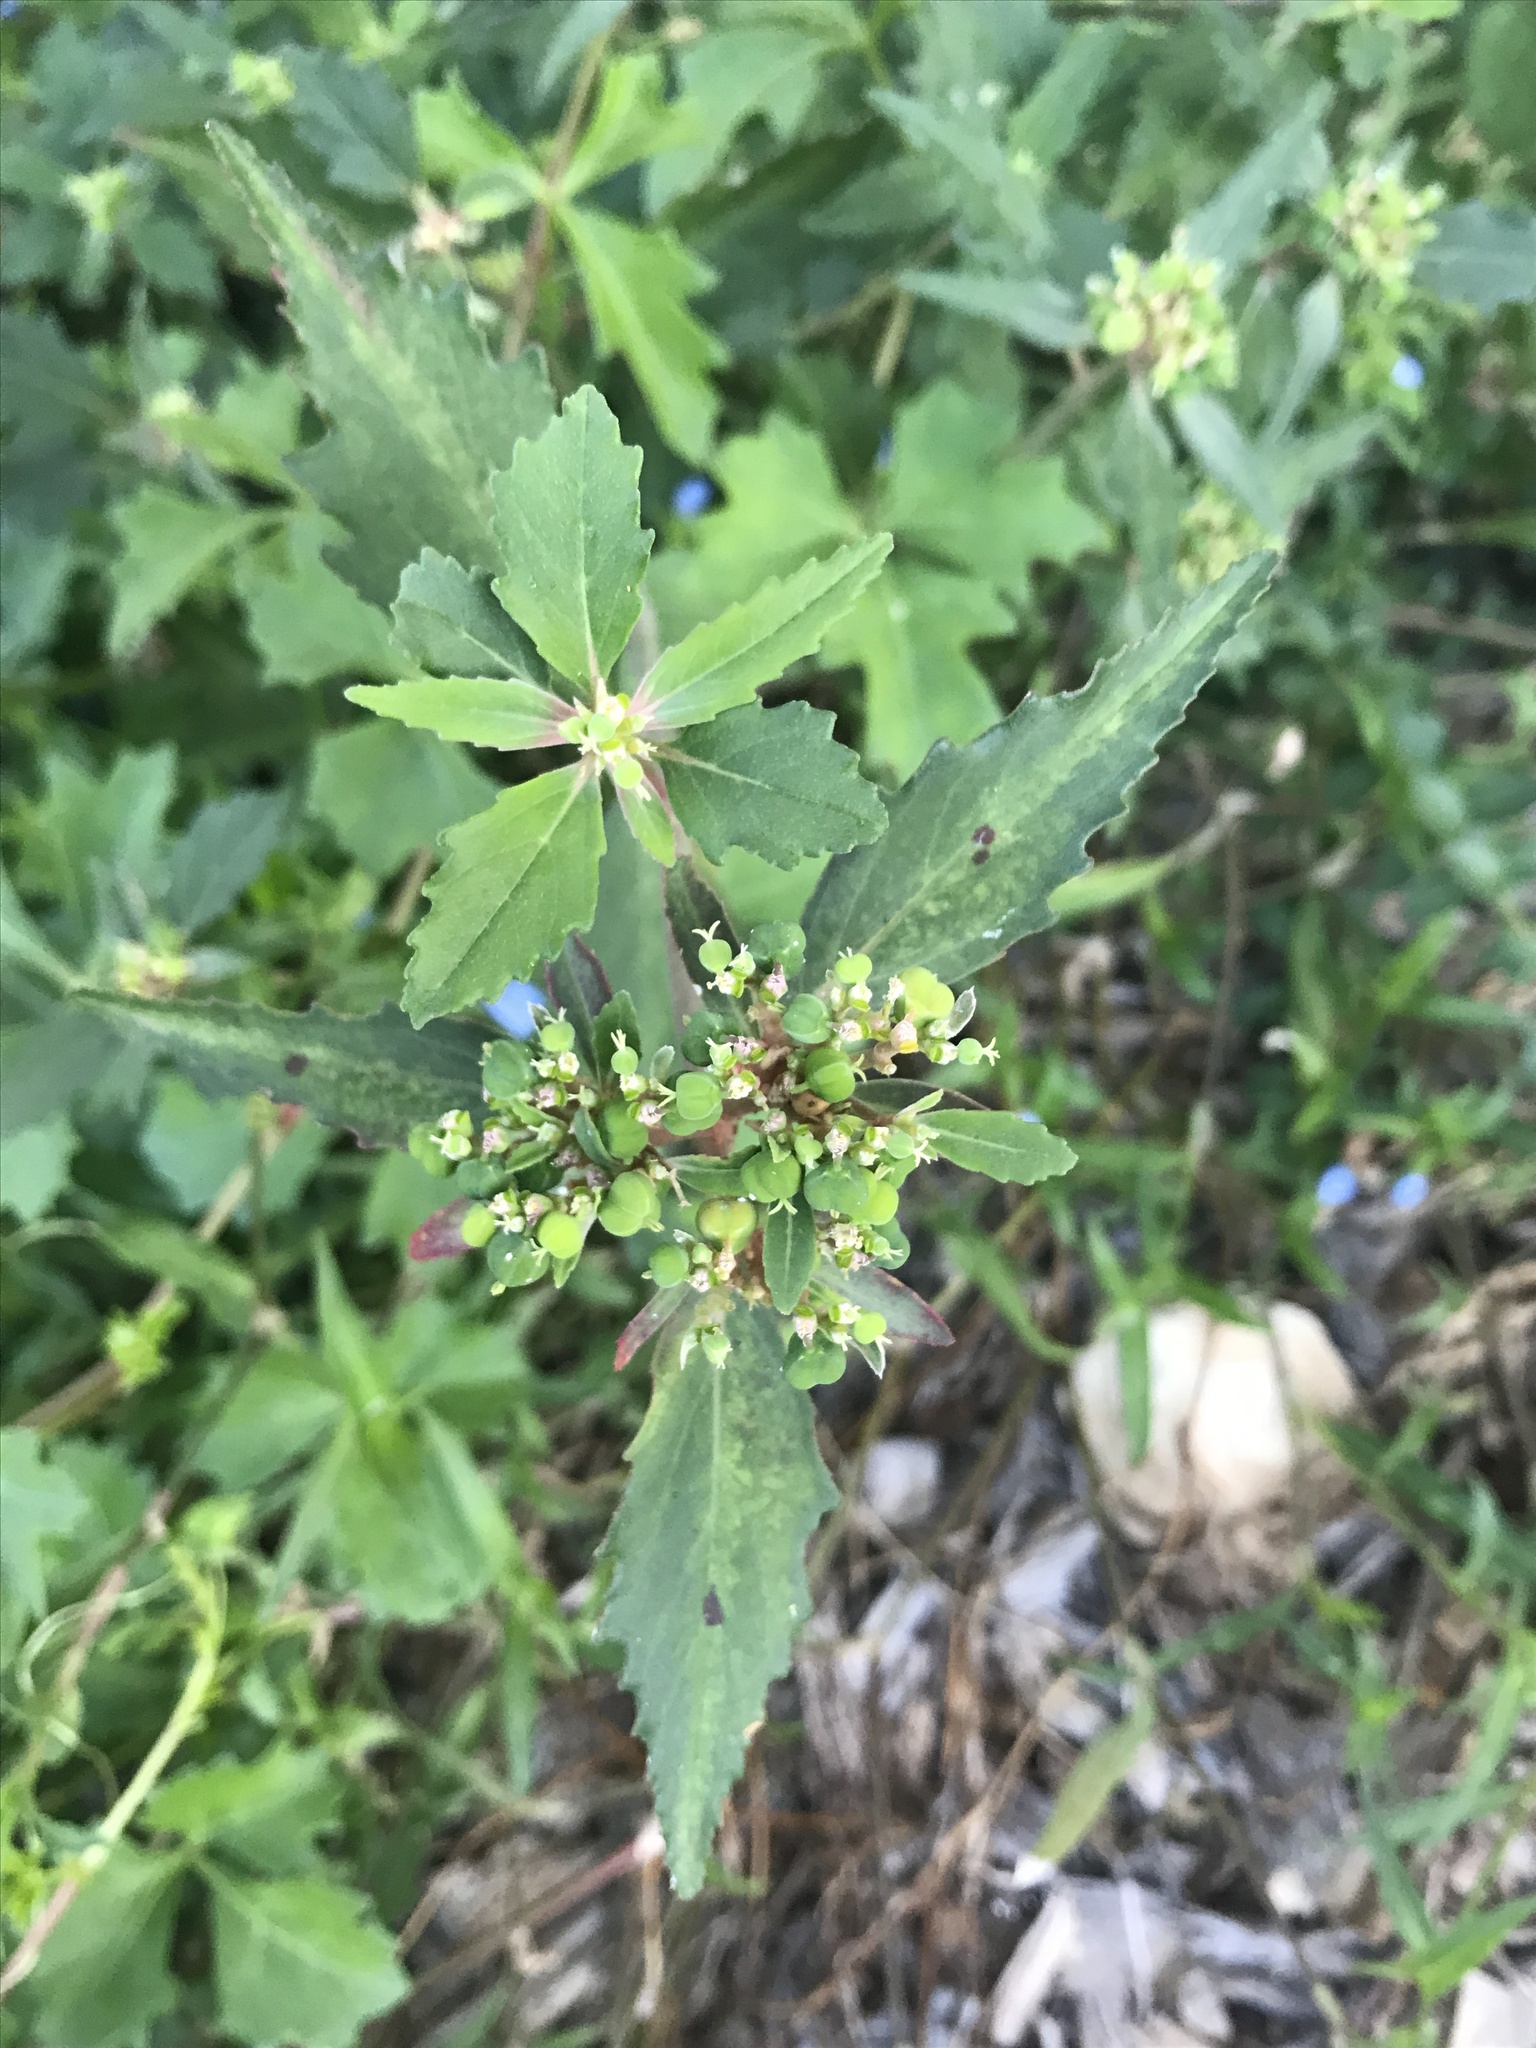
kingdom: Plantae
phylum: Tracheophyta
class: Magnoliopsida
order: Malpighiales
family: Euphorbiaceae
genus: Euphorbia
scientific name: Euphorbia dentata
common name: Dentate spurge
